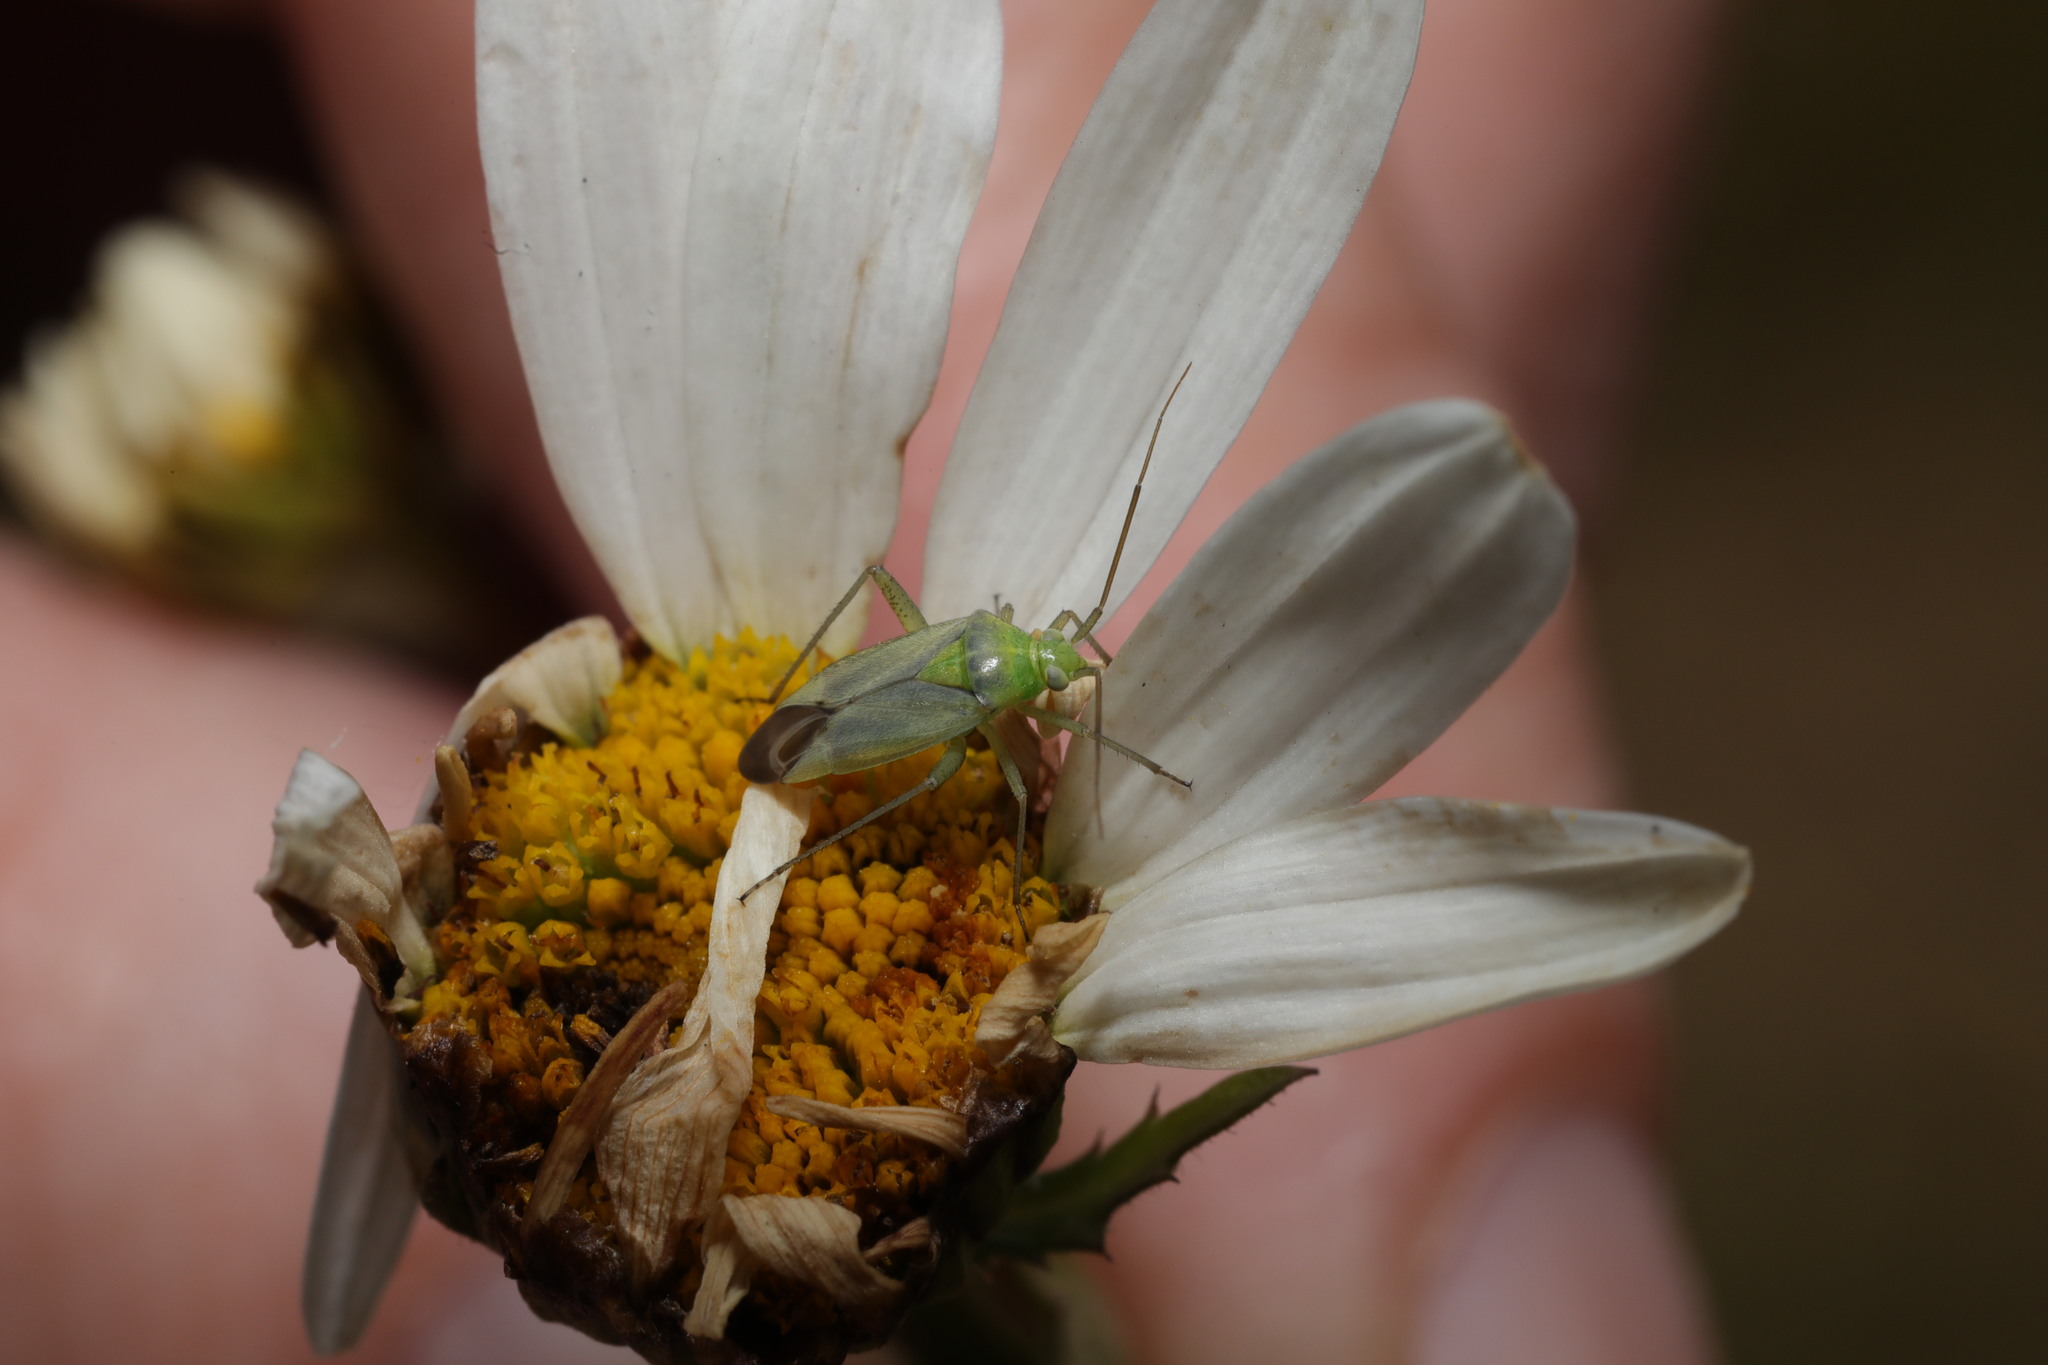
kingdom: Animalia
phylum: Arthropoda
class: Insecta
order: Hemiptera
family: Miridae
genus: Closterotomus
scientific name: Closterotomus norvegicus
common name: Plant bug
